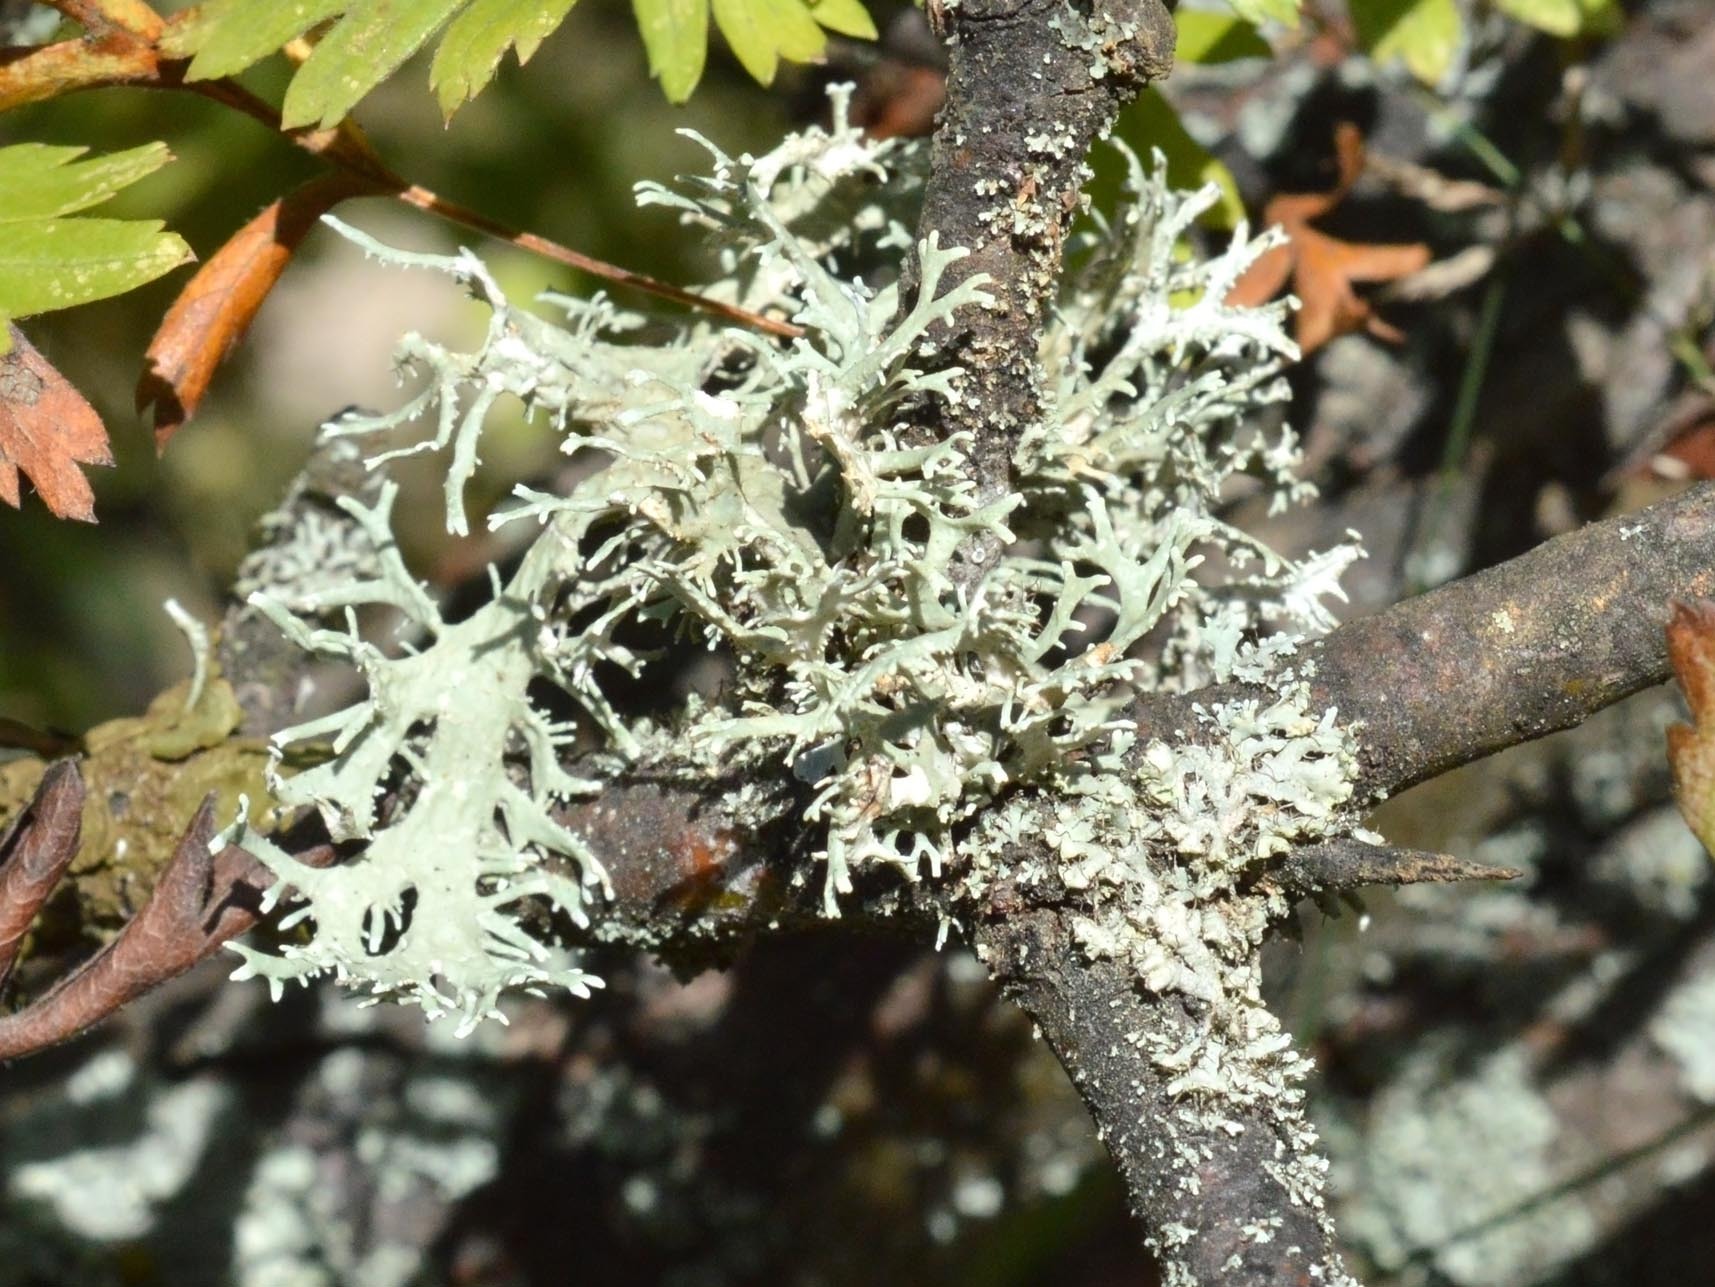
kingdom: Fungi
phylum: Ascomycota
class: Lecanoromycetes
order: Lecanorales
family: Parmeliaceae
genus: Evernia
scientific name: Evernia prunastri
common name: Oak moss
